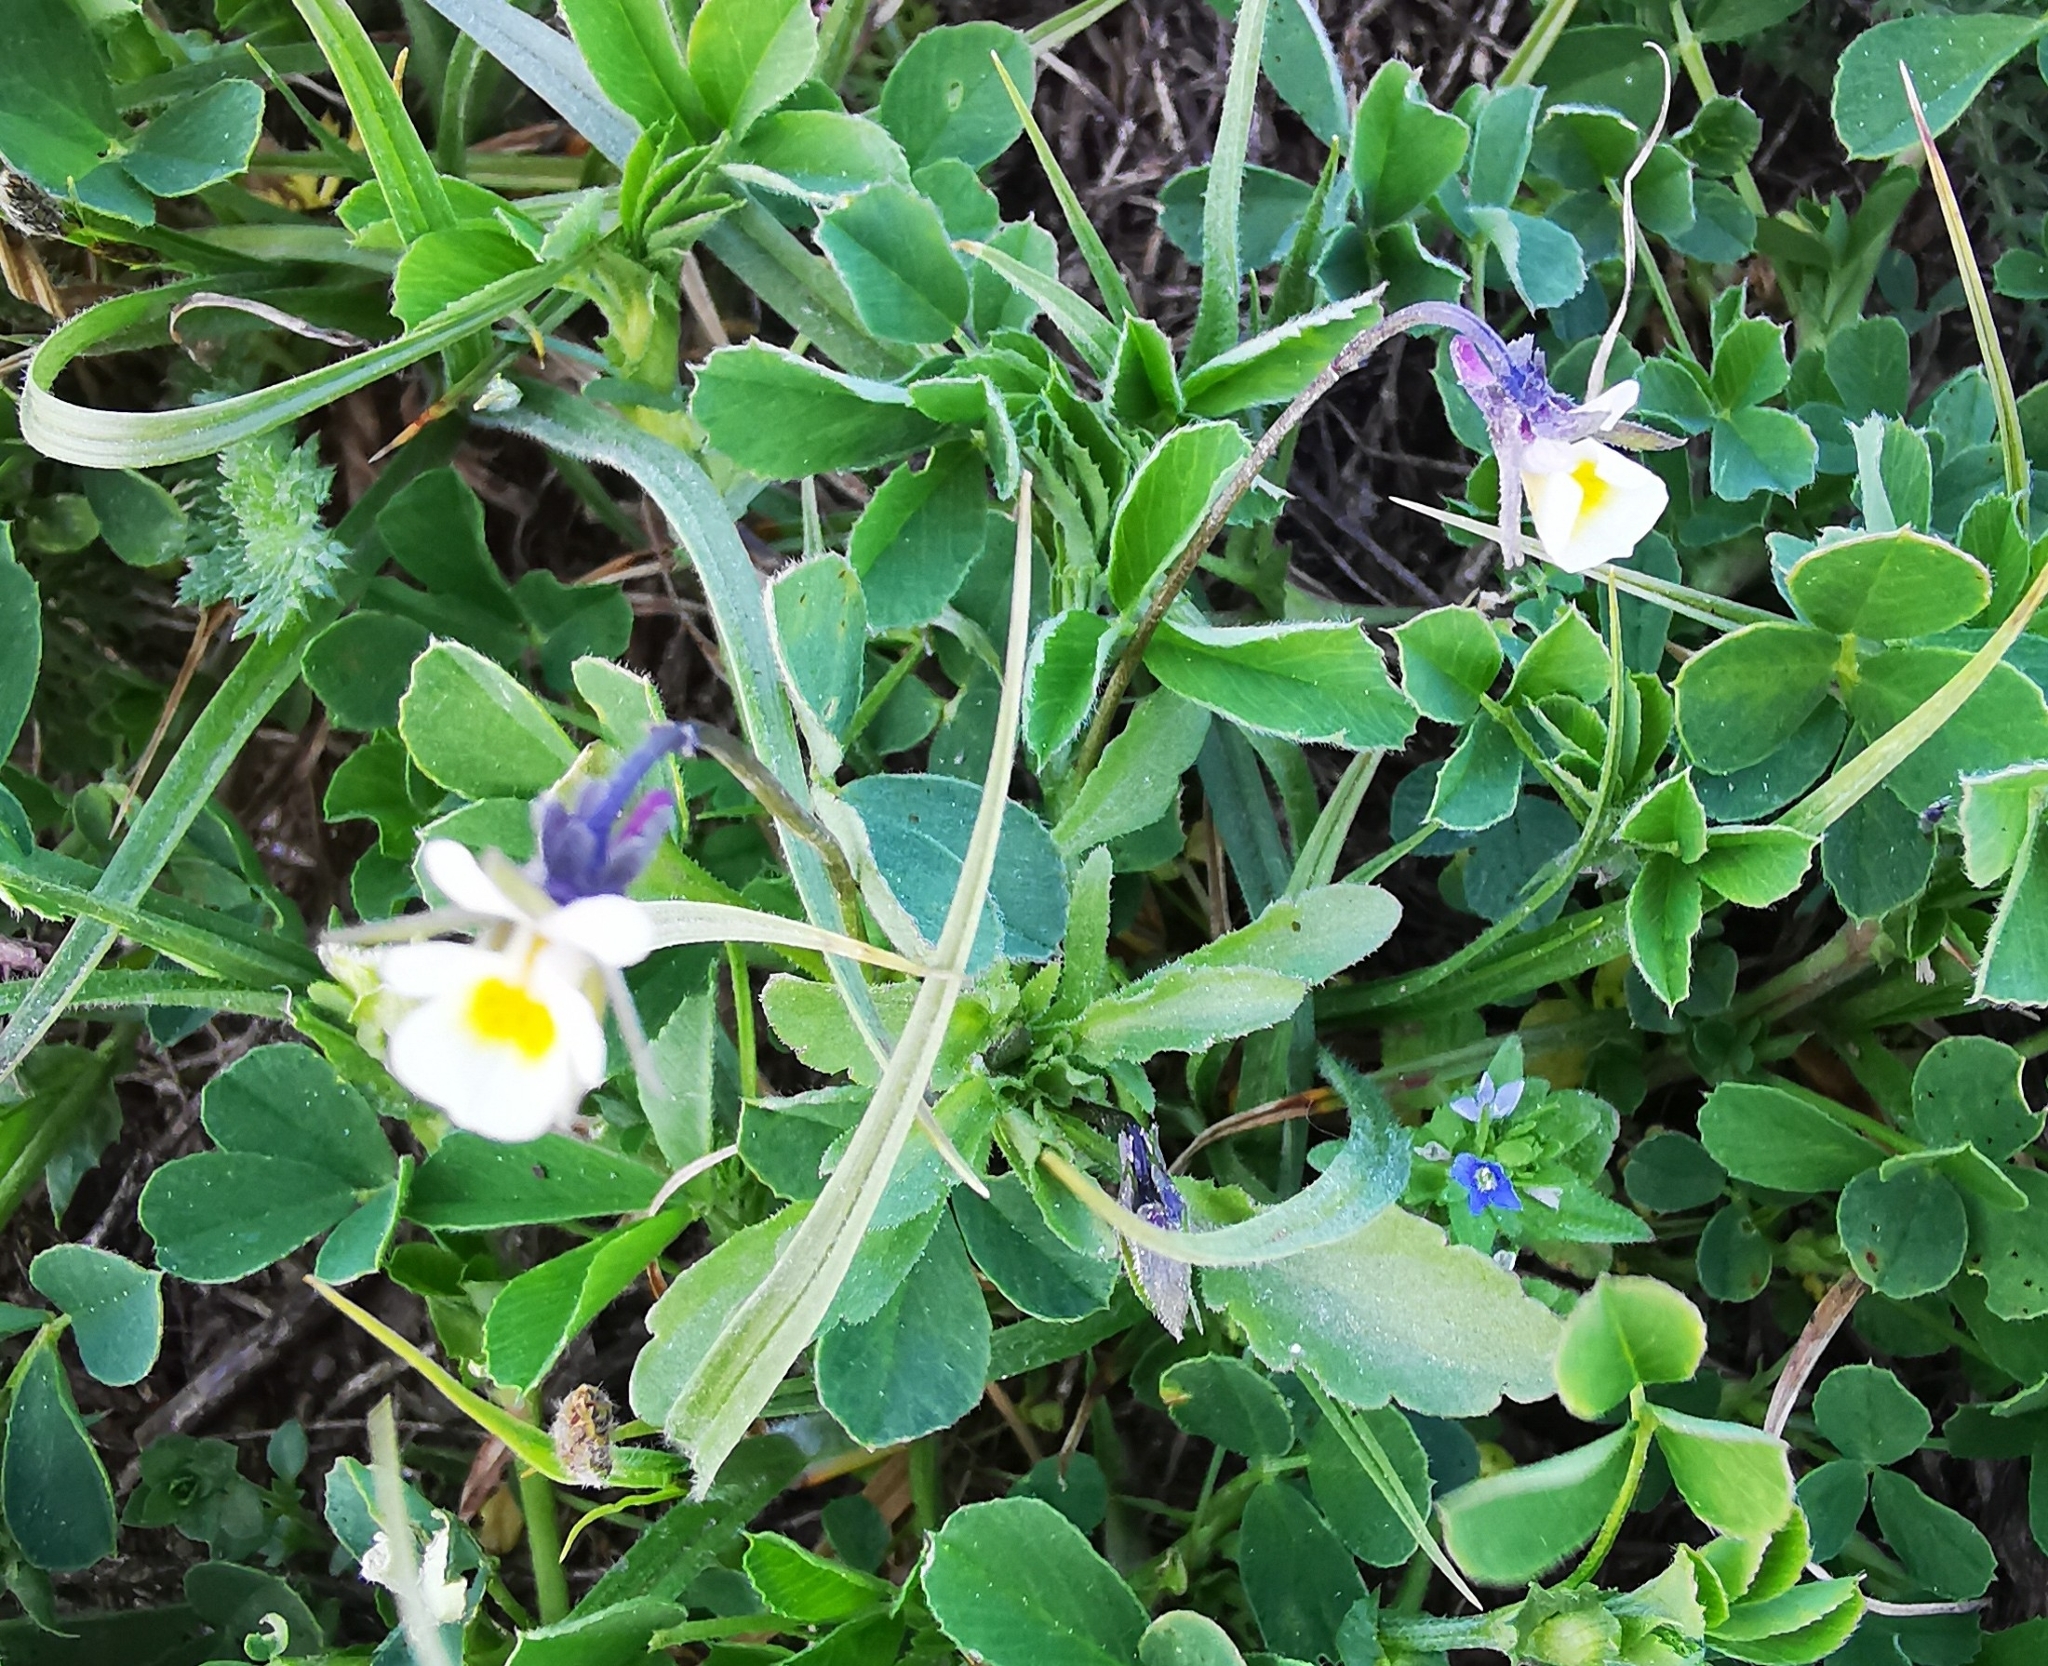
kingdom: Plantae
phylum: Tracheophyta
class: Magnoliopsida
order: Malpighiales
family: Violaceae
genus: Viola
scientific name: Viola arvensis
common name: Field pansy
